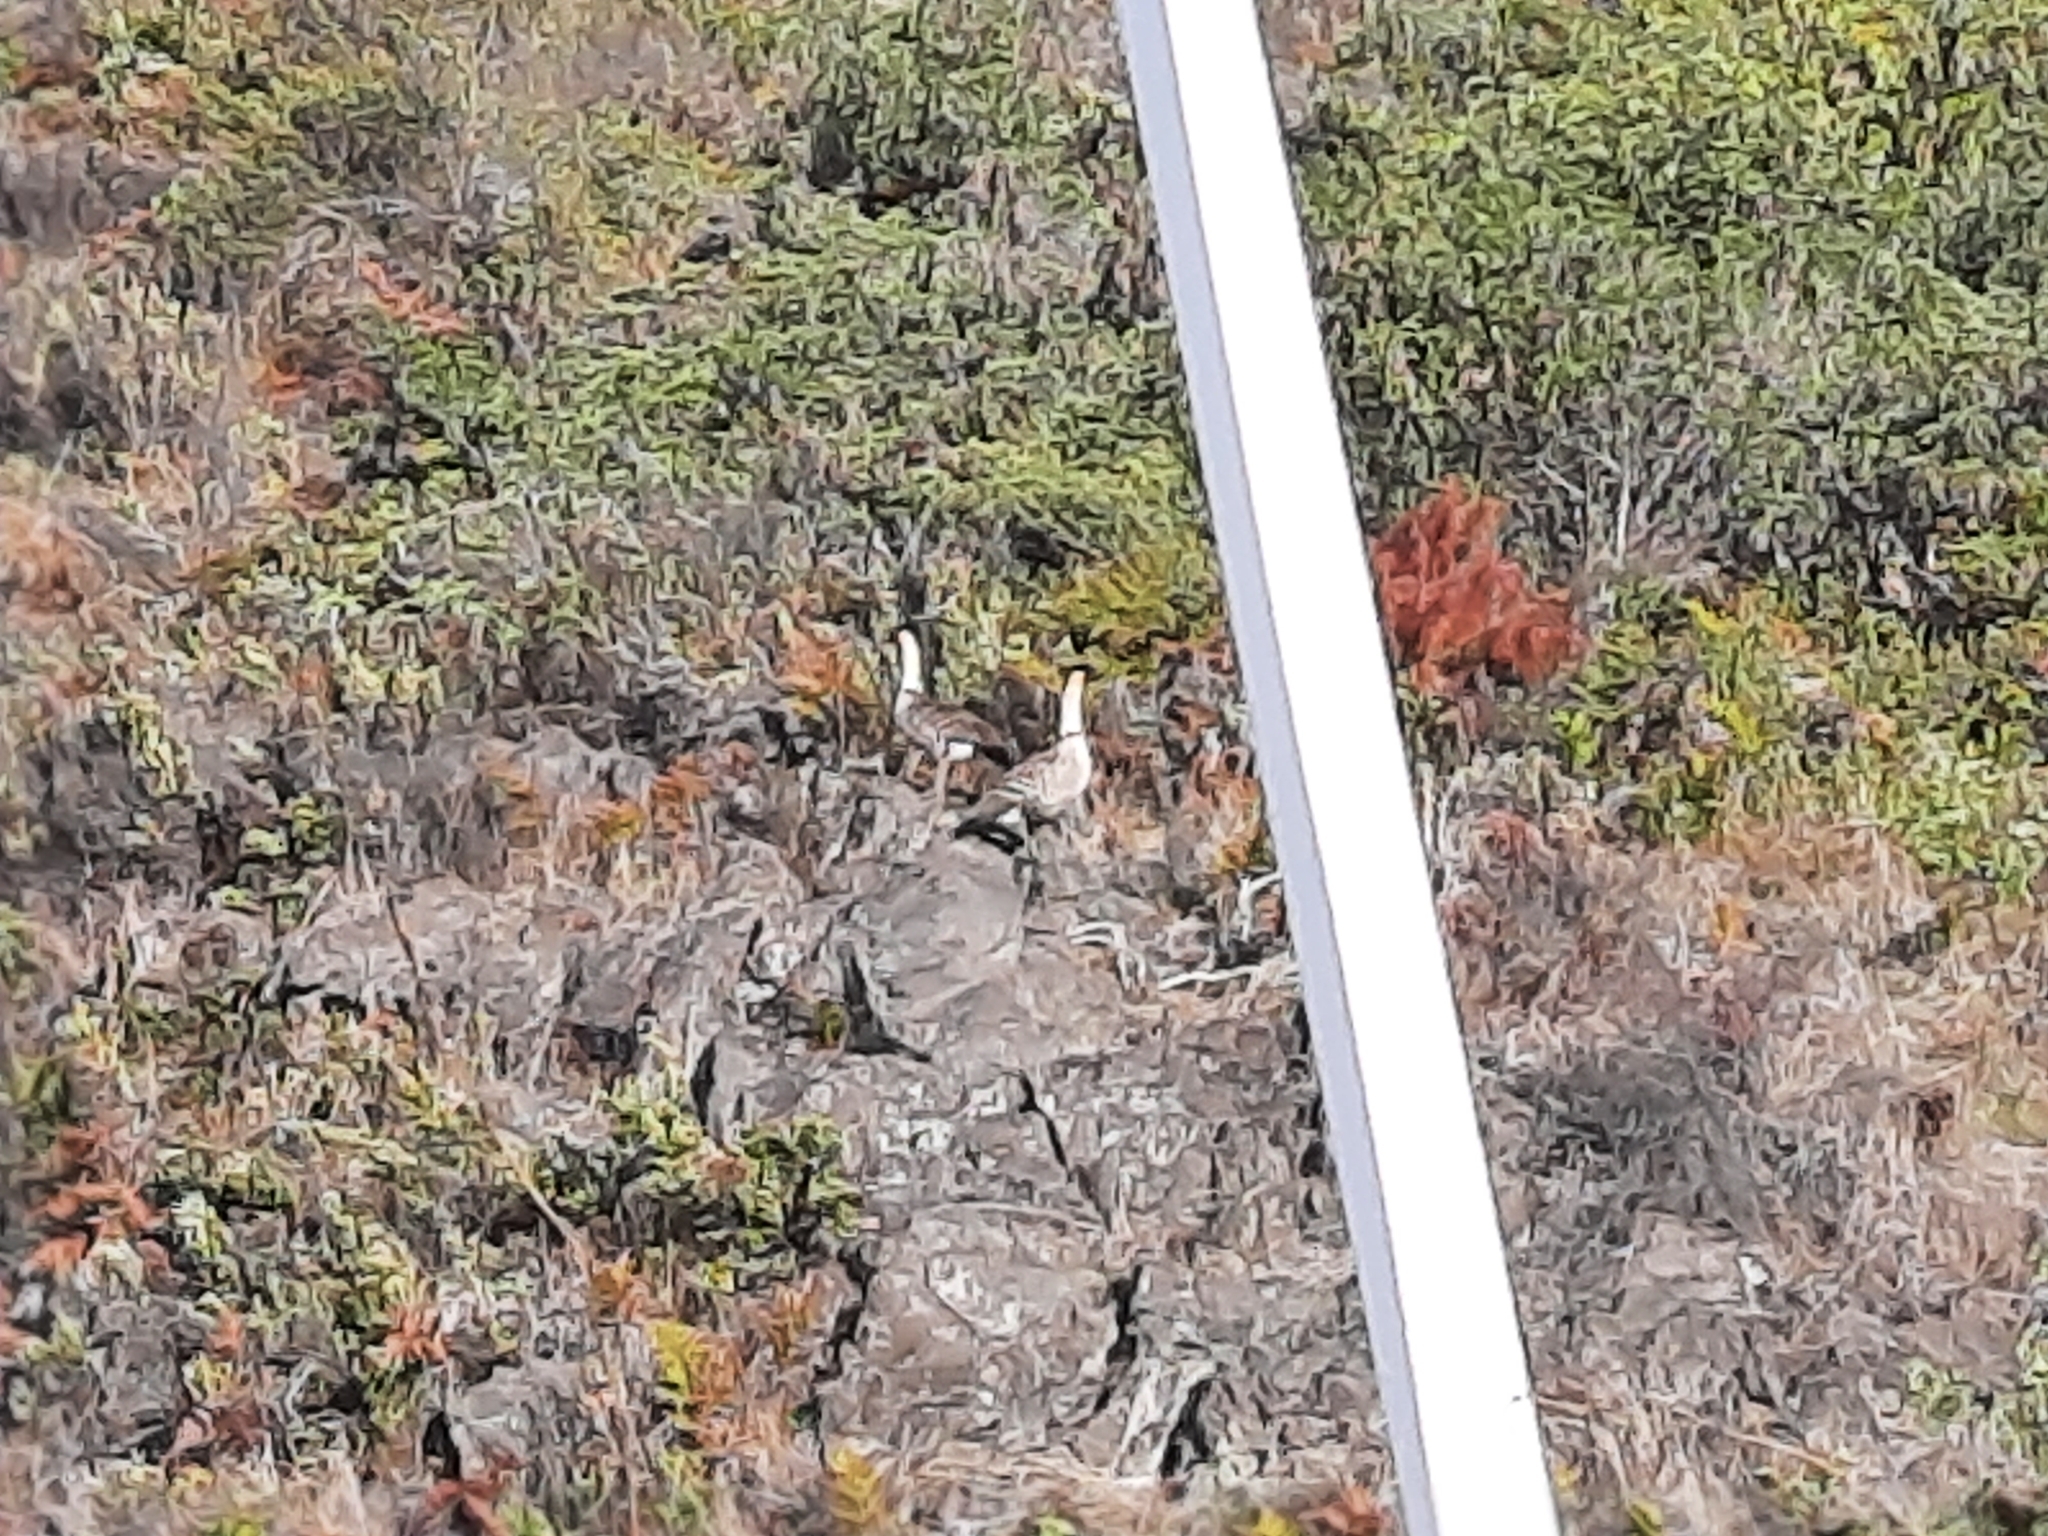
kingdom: Animalia
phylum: Chordata
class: Aves
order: Anseriformes
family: Anatidae
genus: Branta
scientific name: Branta sandvicensis
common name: Nene
